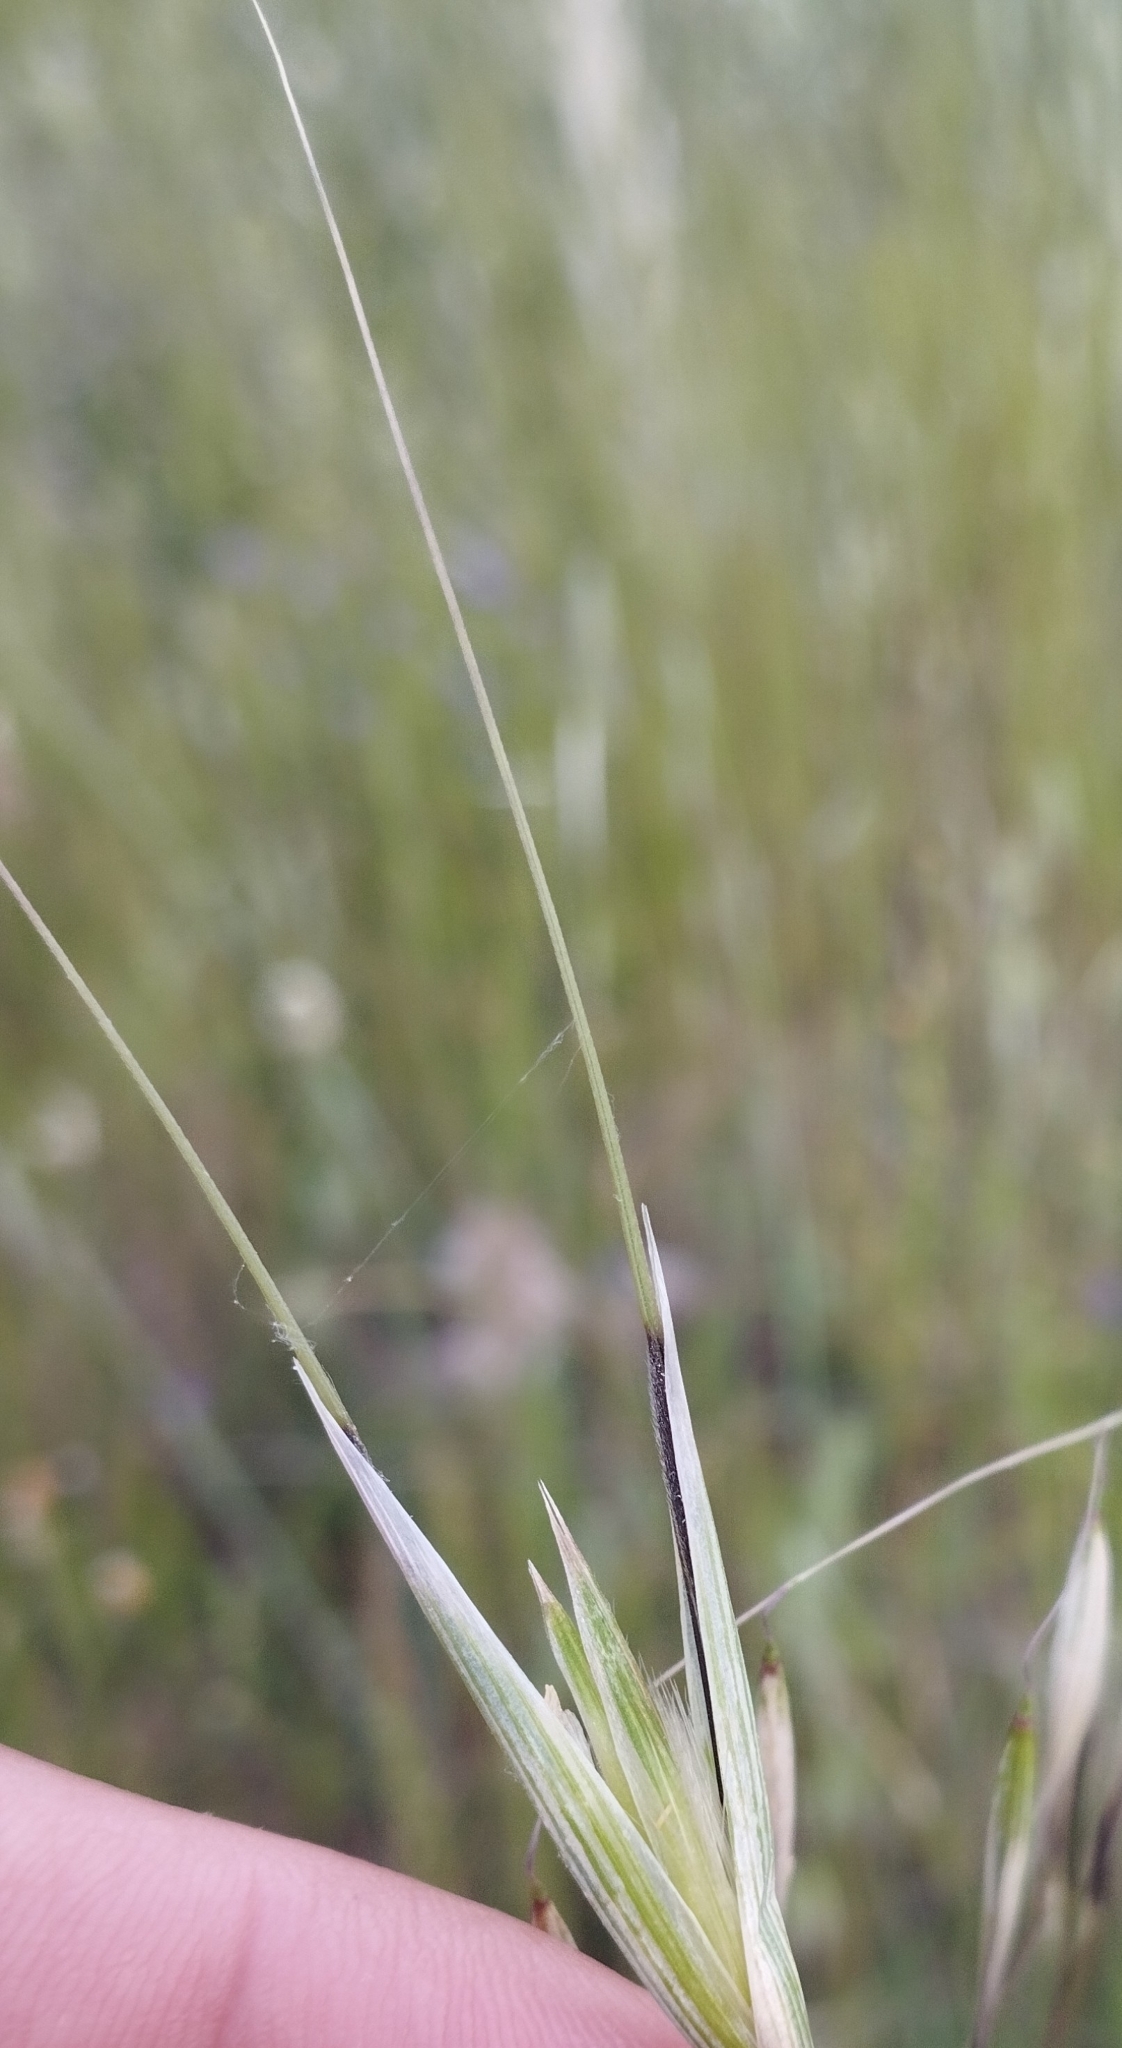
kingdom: Plantae
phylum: Tracheophyta
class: Liliopsida
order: Poales
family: Poaceae
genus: Avena
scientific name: Avena sterilis
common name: Animated oat
